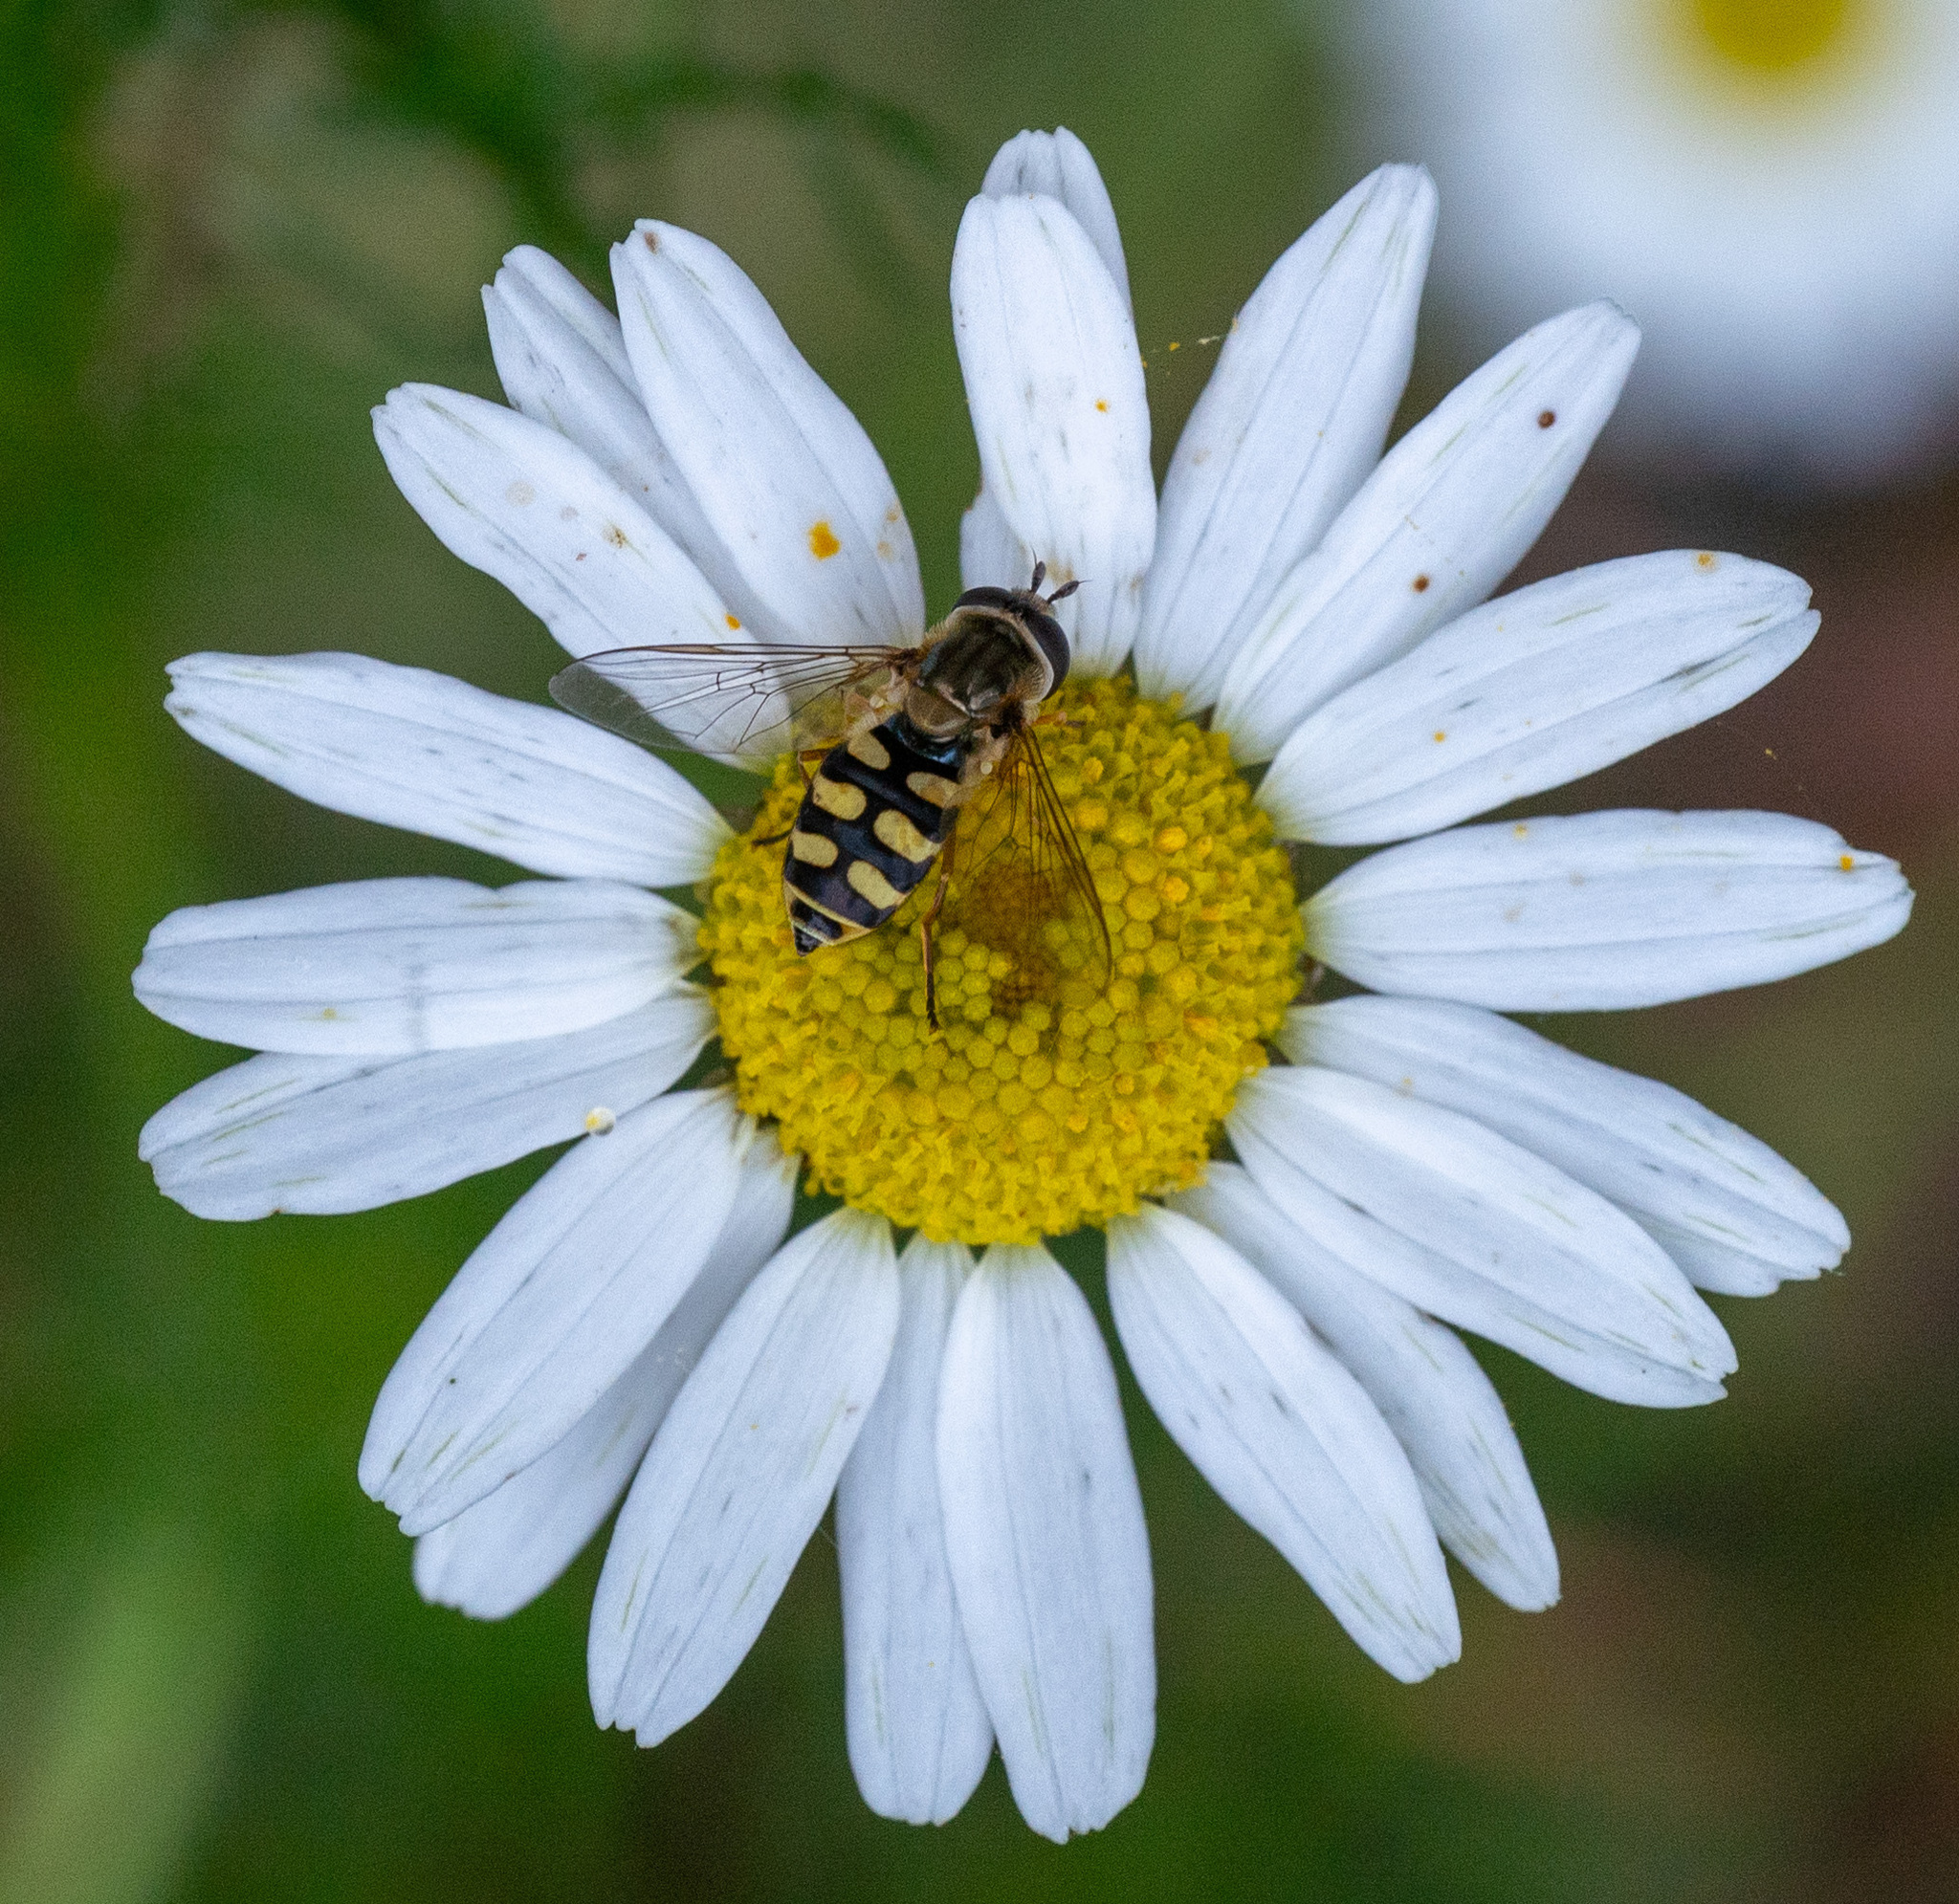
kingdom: Animalia
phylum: Arthropoda
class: Insecta
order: Diptera
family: Syrphidae
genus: Eupeodes
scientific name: Eupeodes corollae
